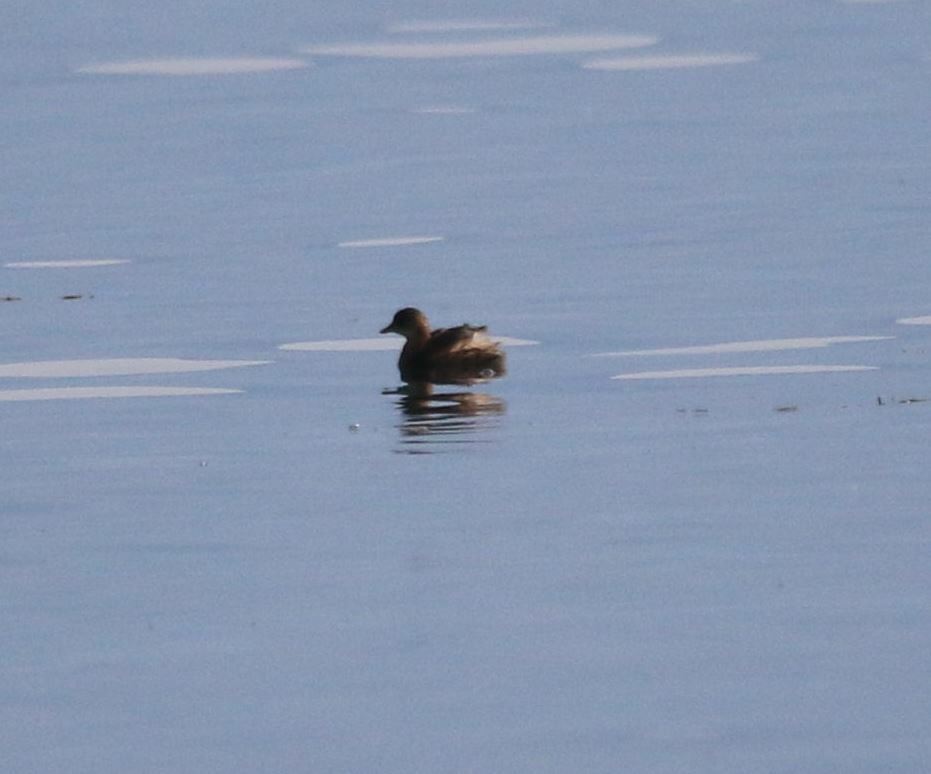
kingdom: Animalia
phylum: Chordata
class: Aves
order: Podicipediformes
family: Podicipedidae
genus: Tachybaptus
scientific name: Tachybaptus ruficollis
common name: Little grebe
